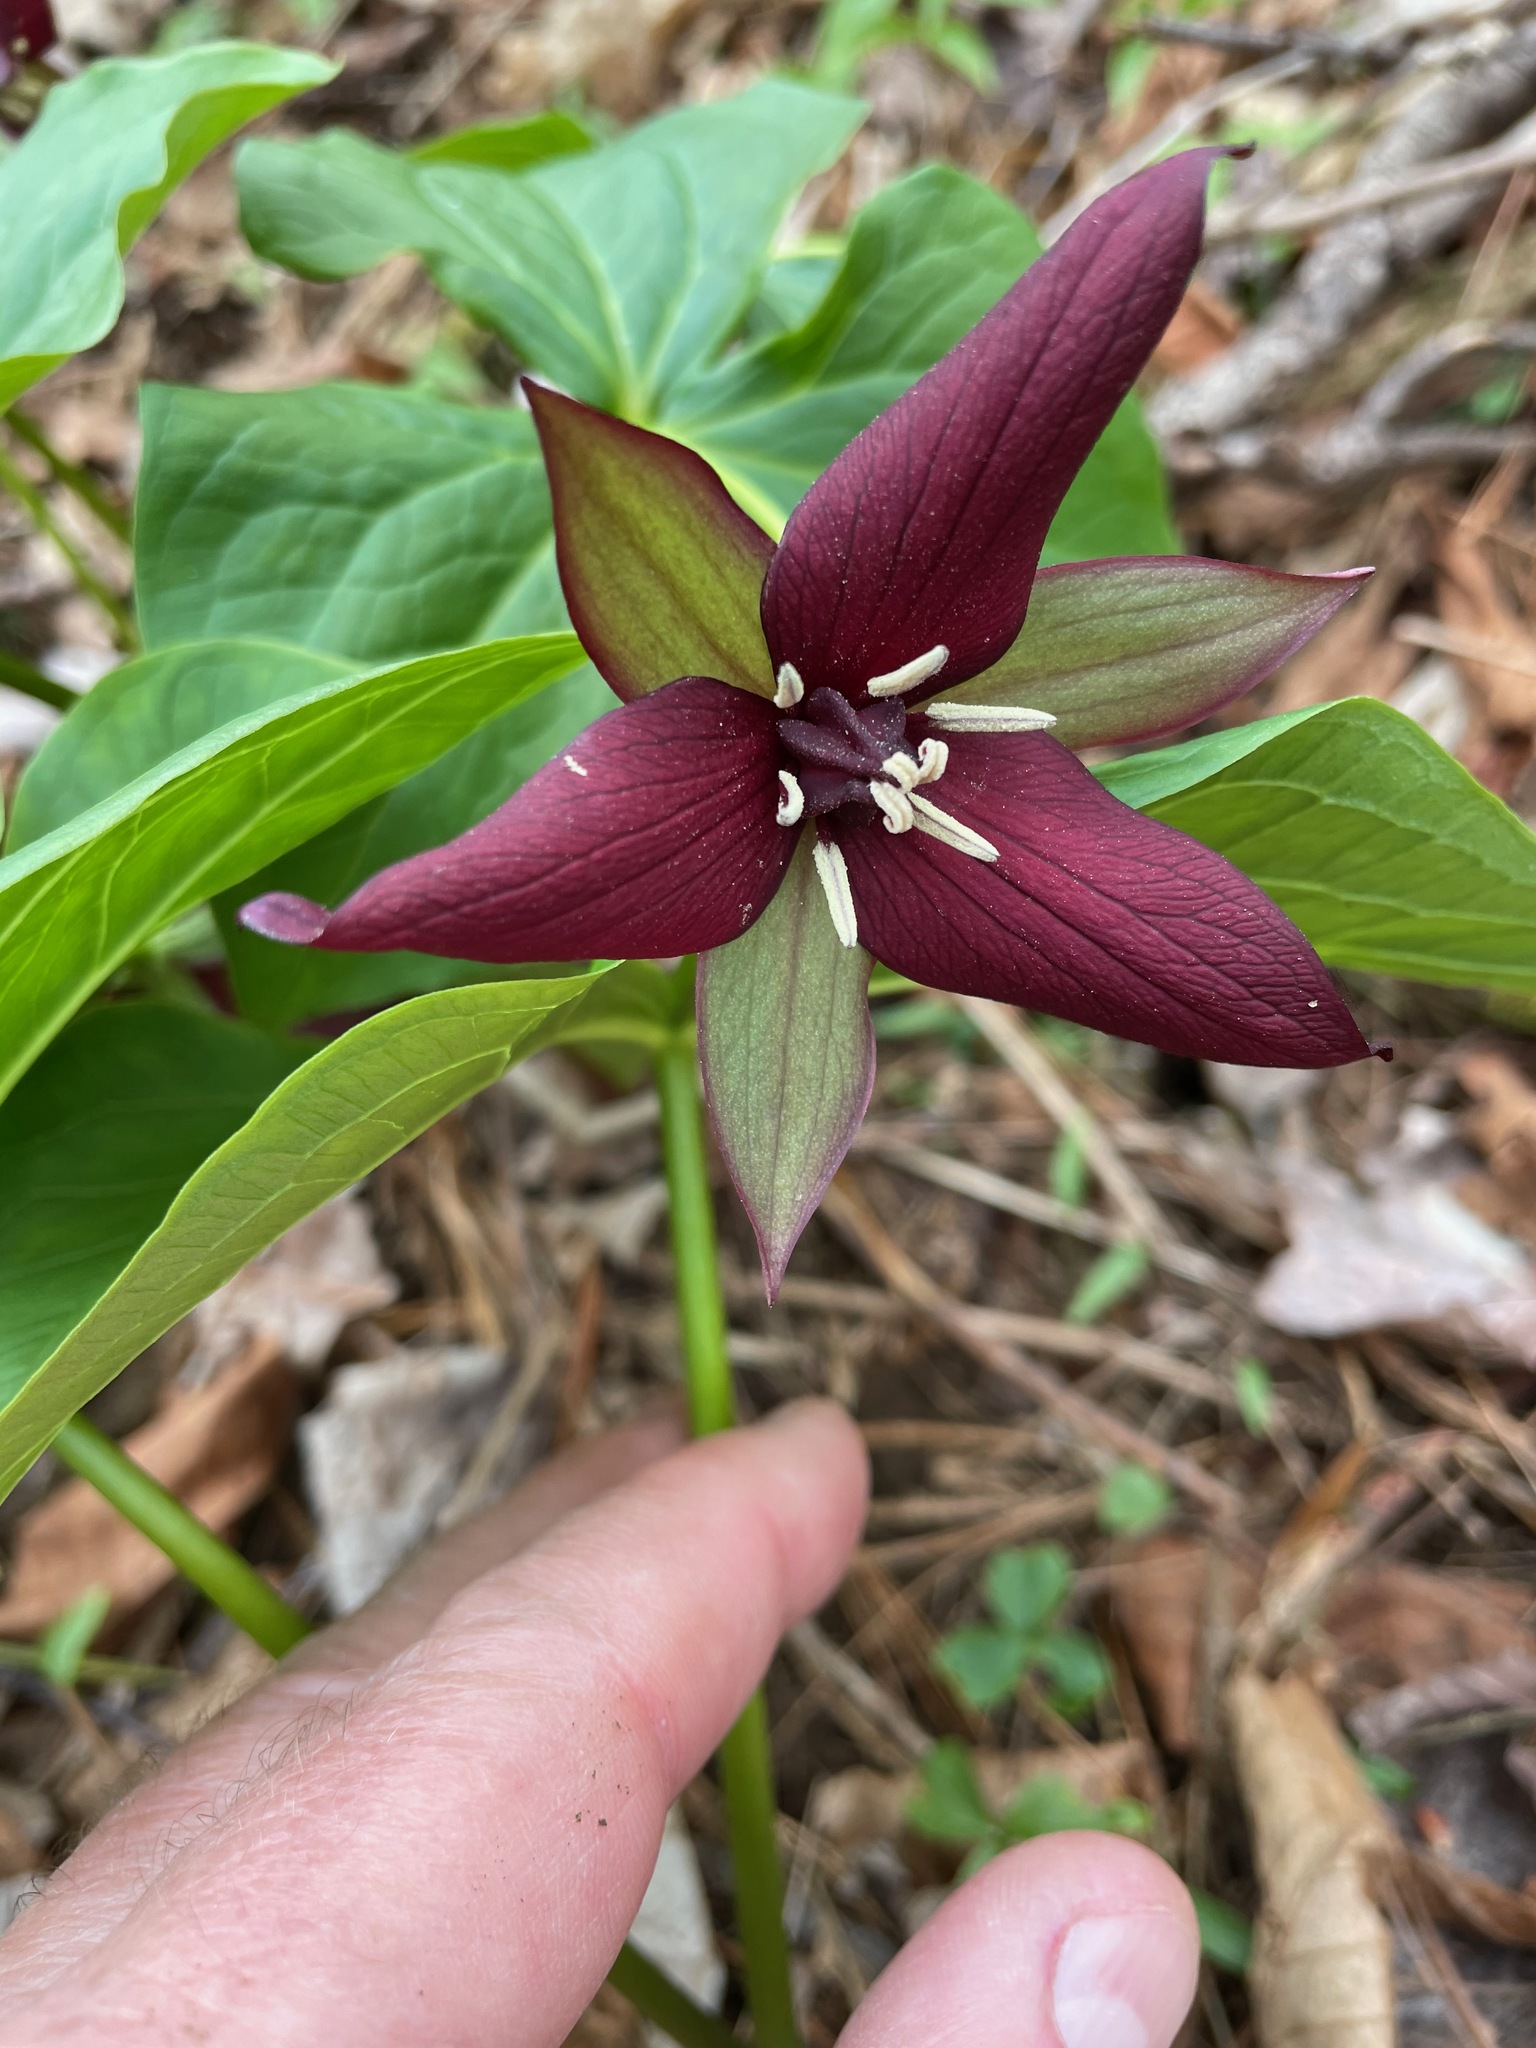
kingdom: Plantae
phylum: Tracheophyta
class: Liliopsida
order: Liliales
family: Melanthiaceae
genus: Trillium
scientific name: Trillium erectum
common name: Purple trillium
